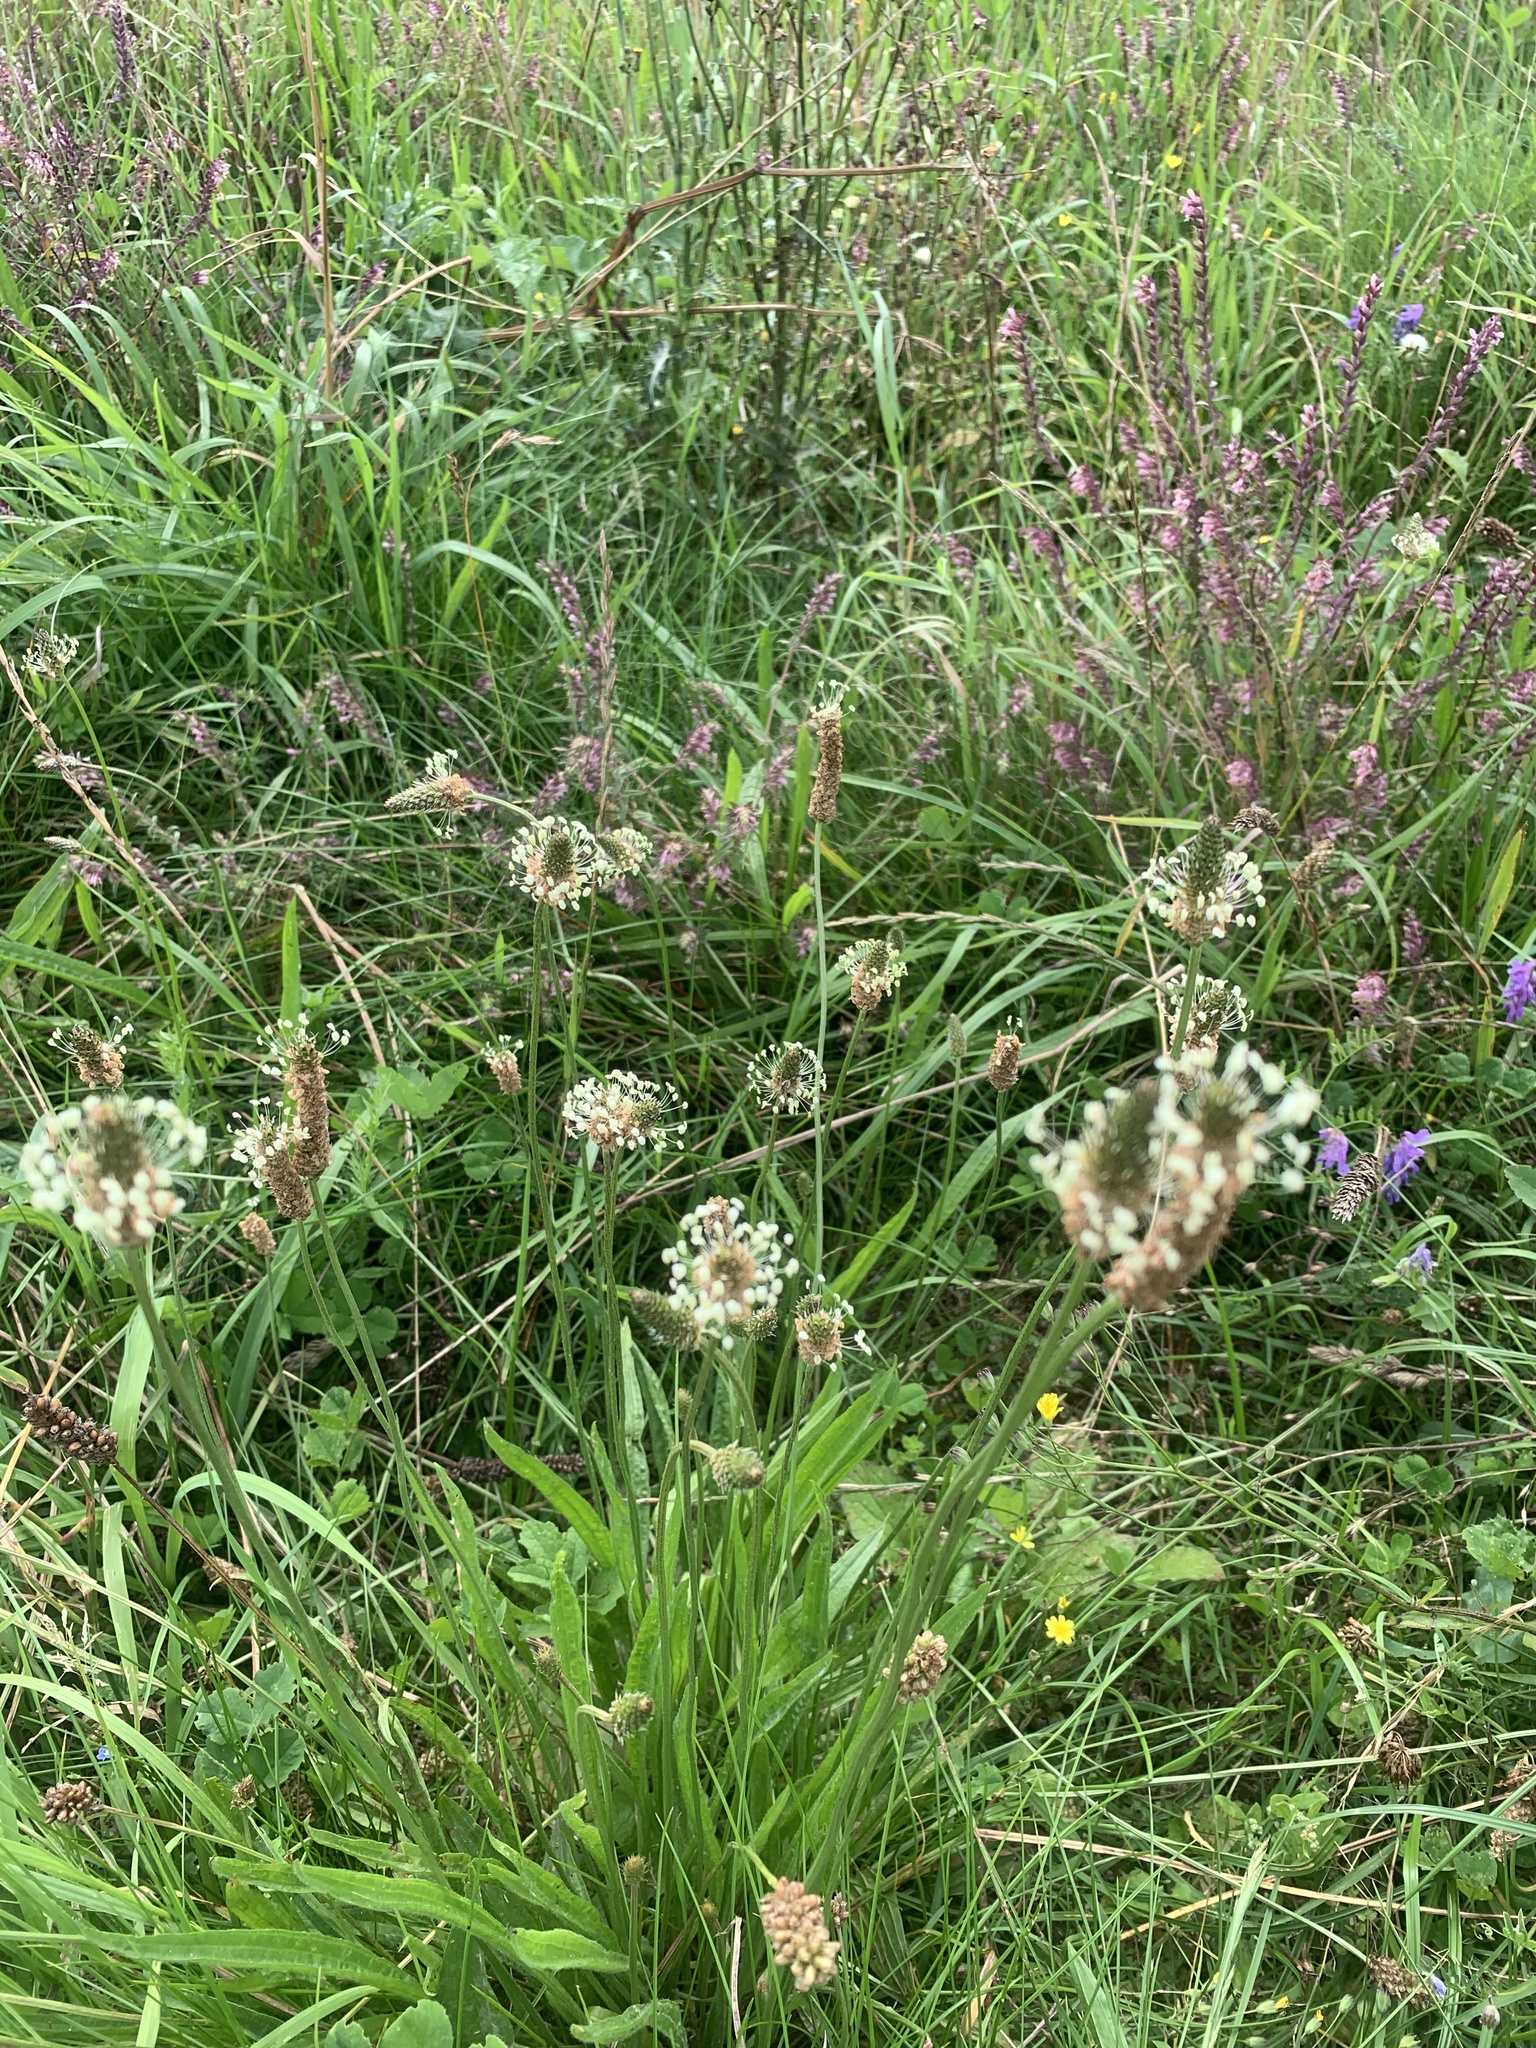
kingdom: Plantae
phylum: Tracheophyta
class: Magnoliopsida
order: Lamiales
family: Plantaginaceae
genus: Plantago
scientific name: Plantago lanceolata
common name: Ribwort plantain
